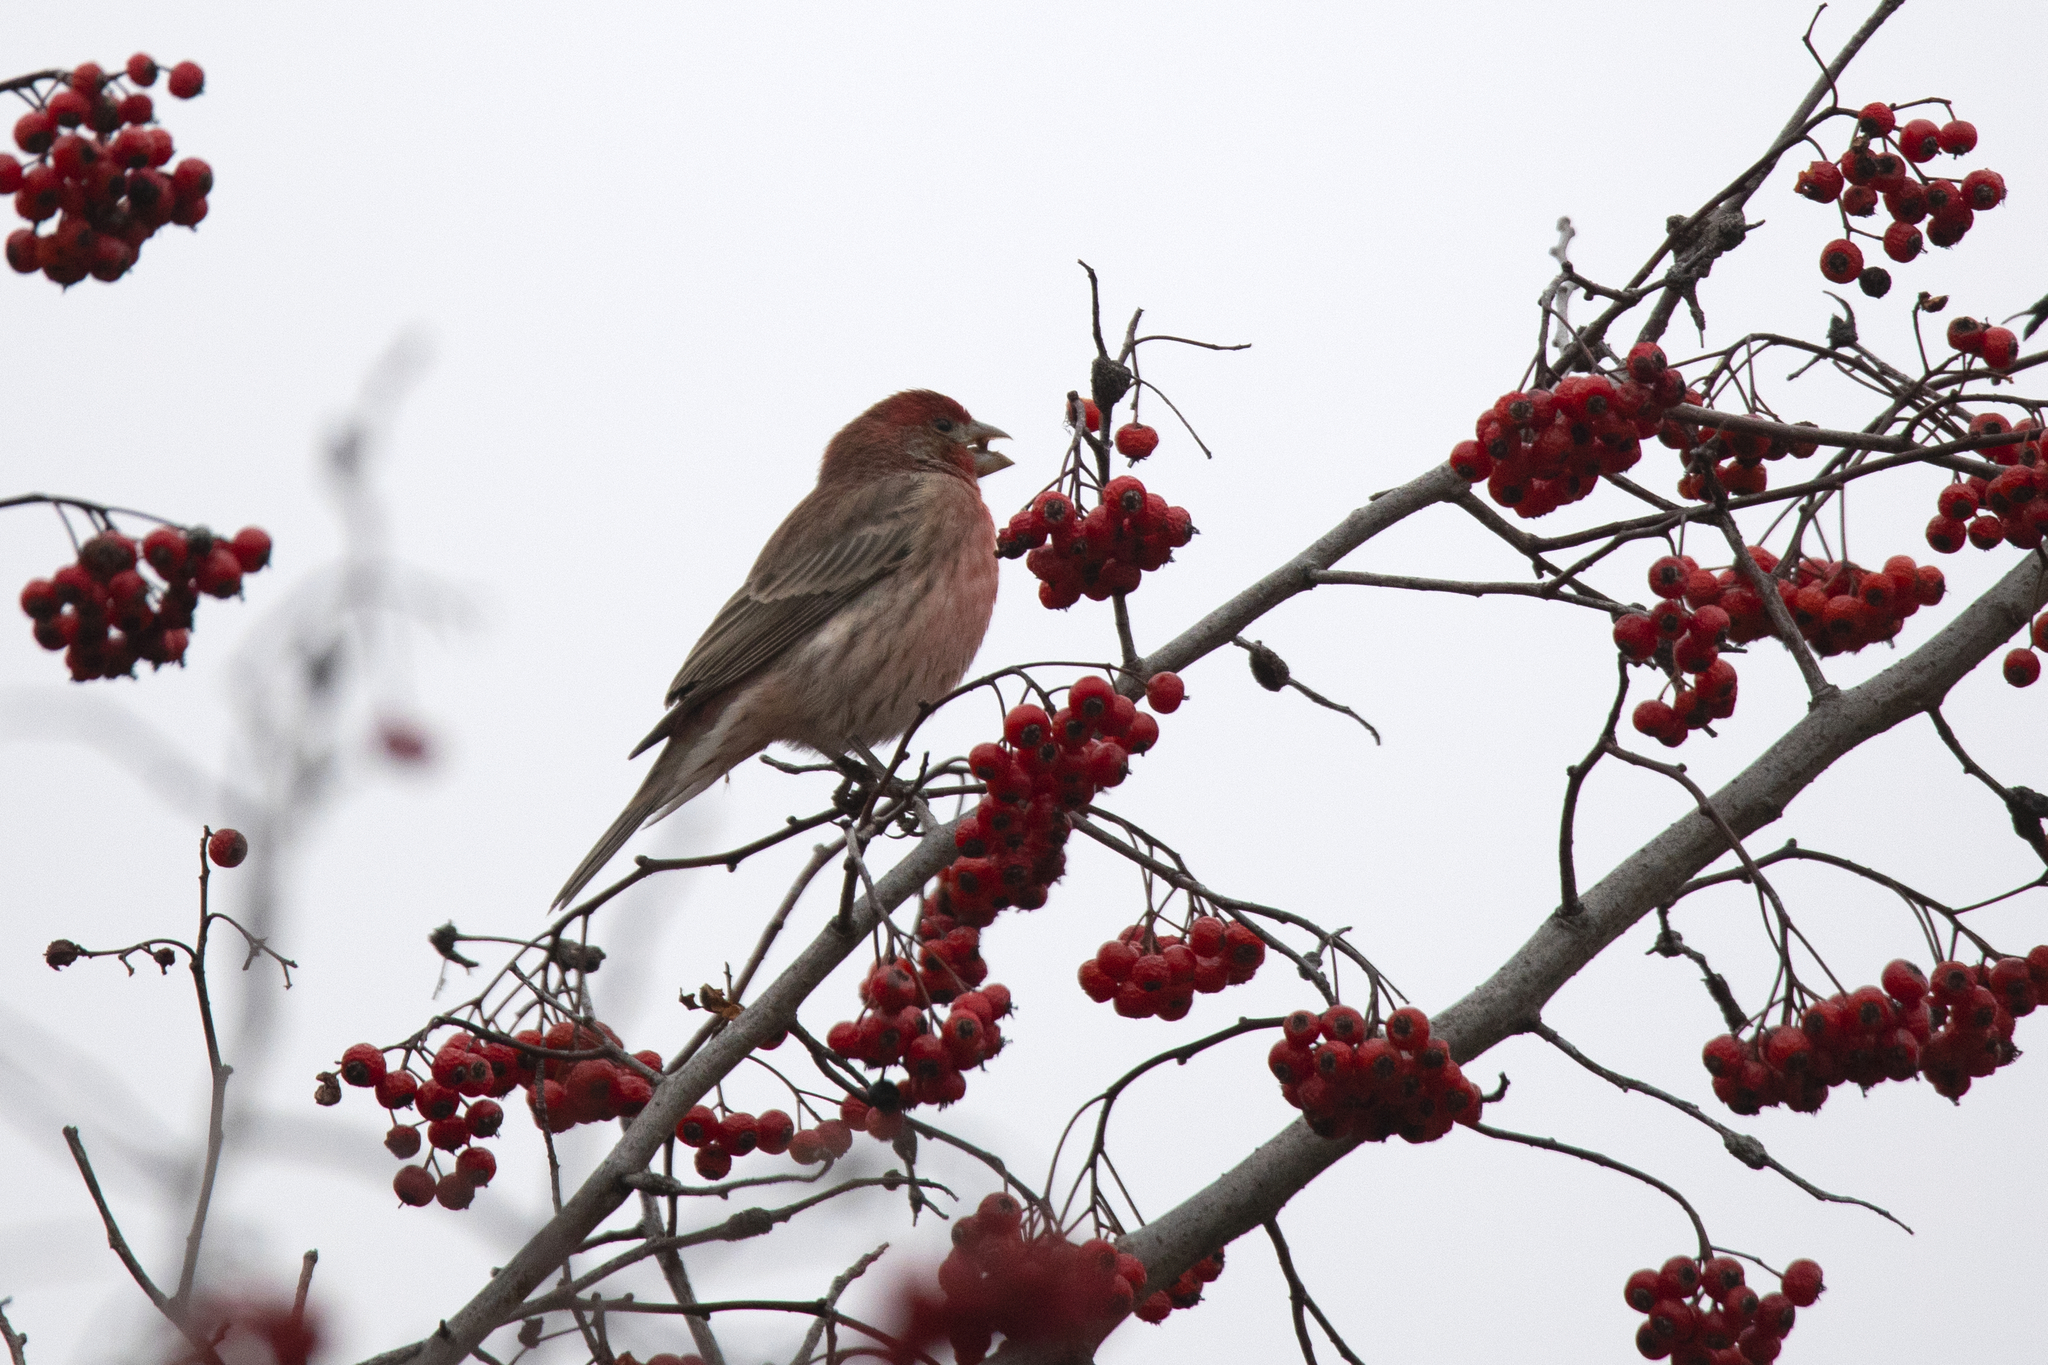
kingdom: Animalia
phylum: Chordata
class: Aves
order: Passeriformes
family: Fringillidae
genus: Haemorhous
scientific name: Haemorhous mexicanus
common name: House finch
